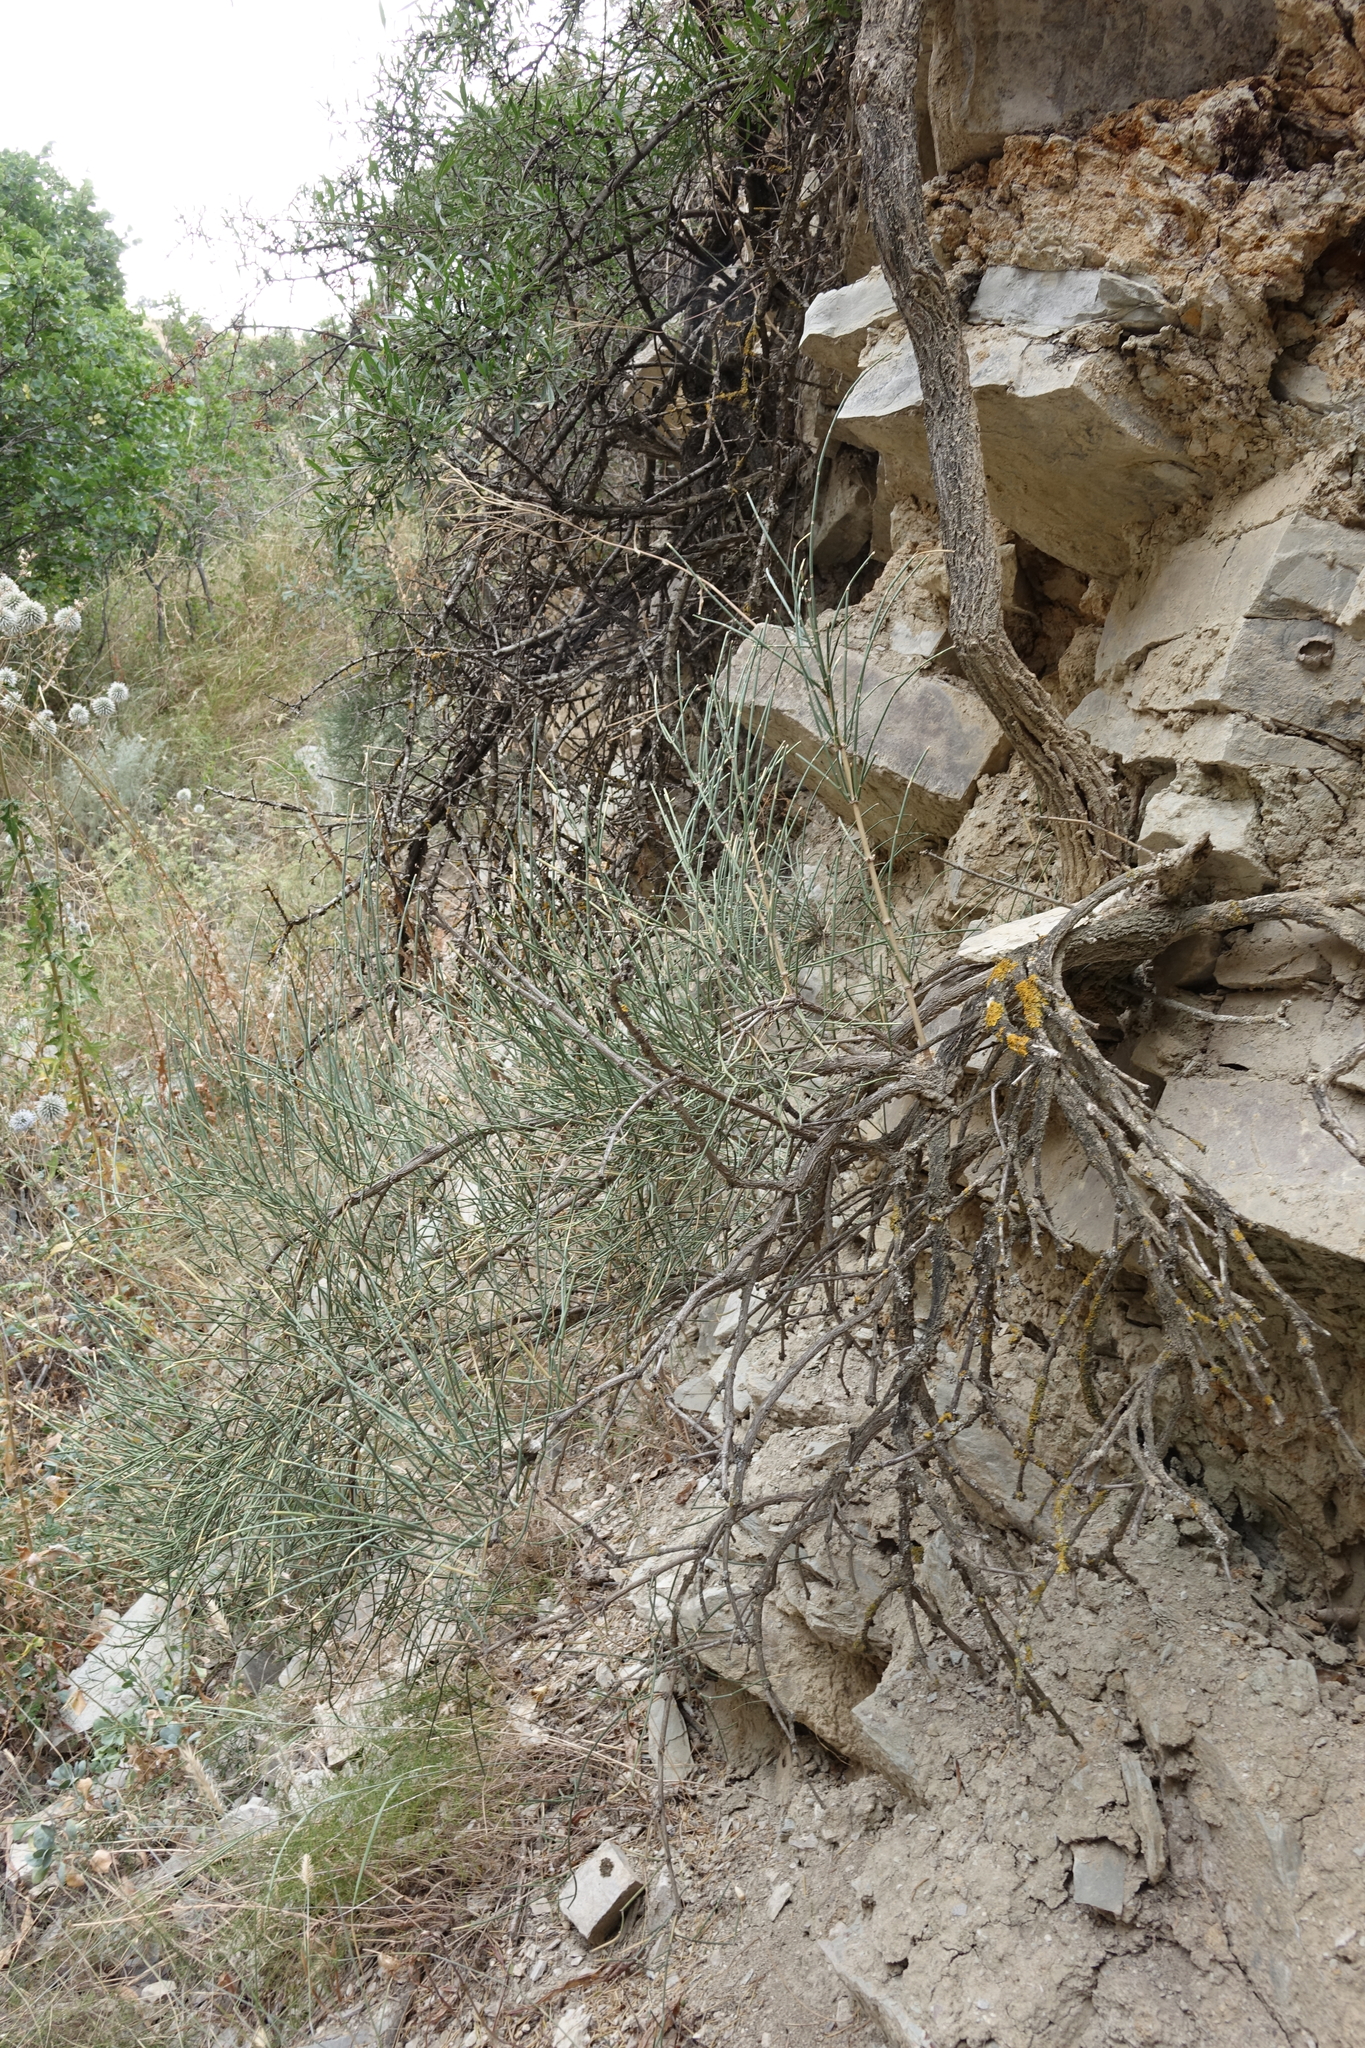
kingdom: Plantae
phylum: Tracheophyta
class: Gnetopsida
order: Ephedrales
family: Ephedraceae
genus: Ephedra
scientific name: Ephedra procera
